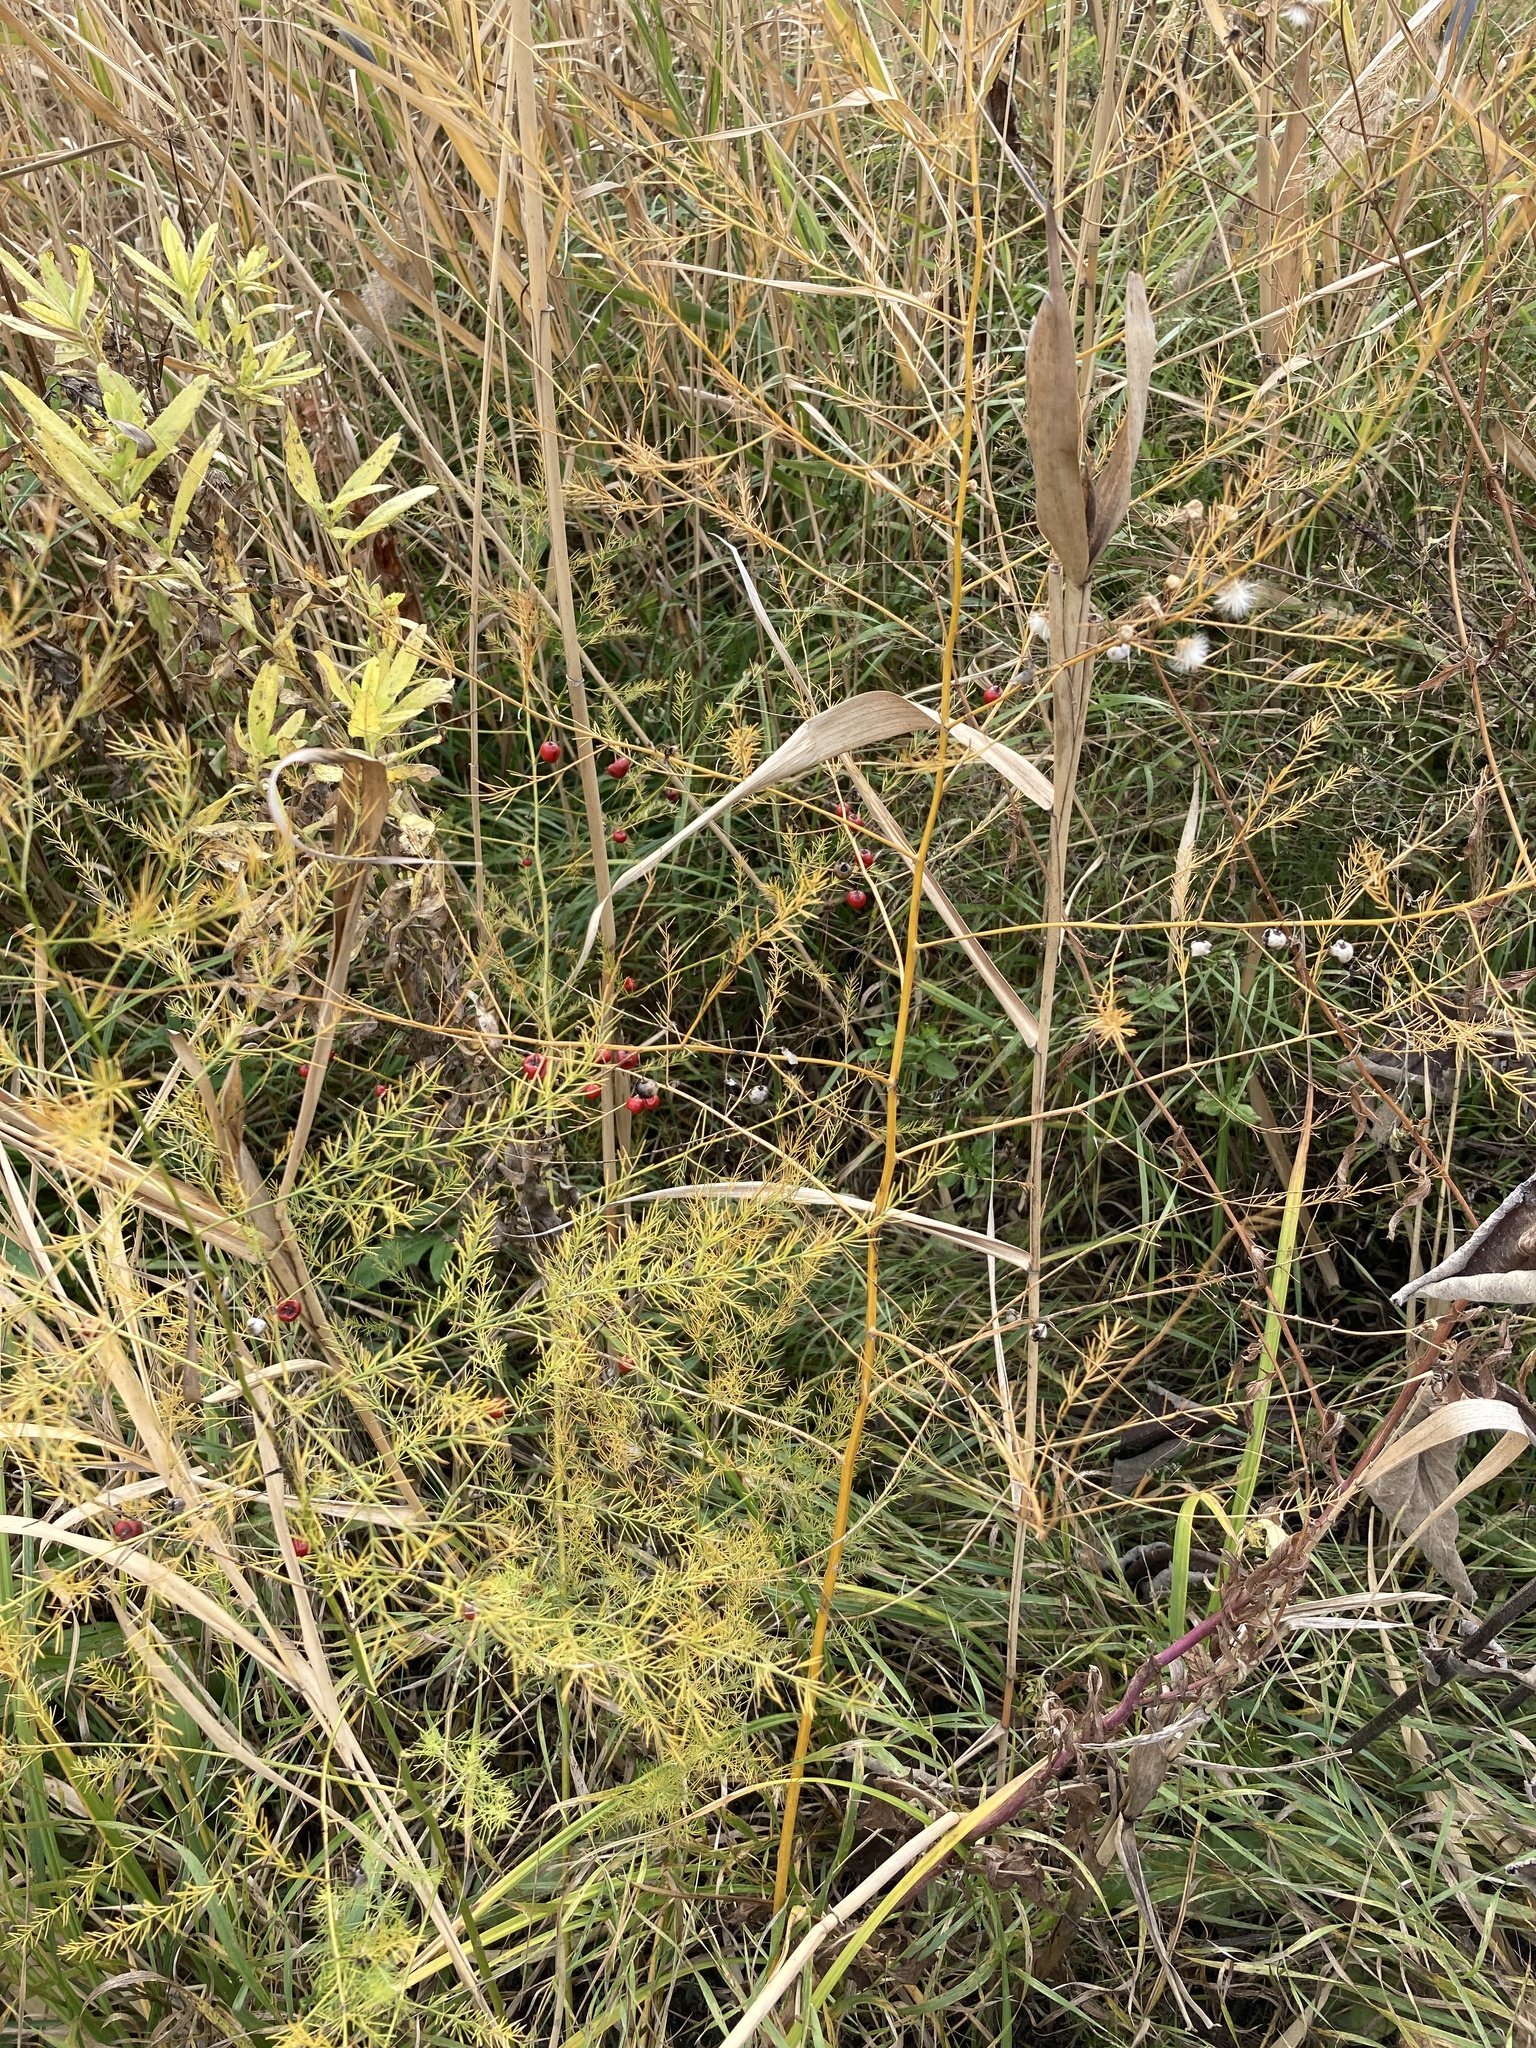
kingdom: Plantae
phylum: Tracheophyta
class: Liliopsida
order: Asparagales
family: Asparagaceae
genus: Asparagus
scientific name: Asparagus officinalis
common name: Garden asparagus
